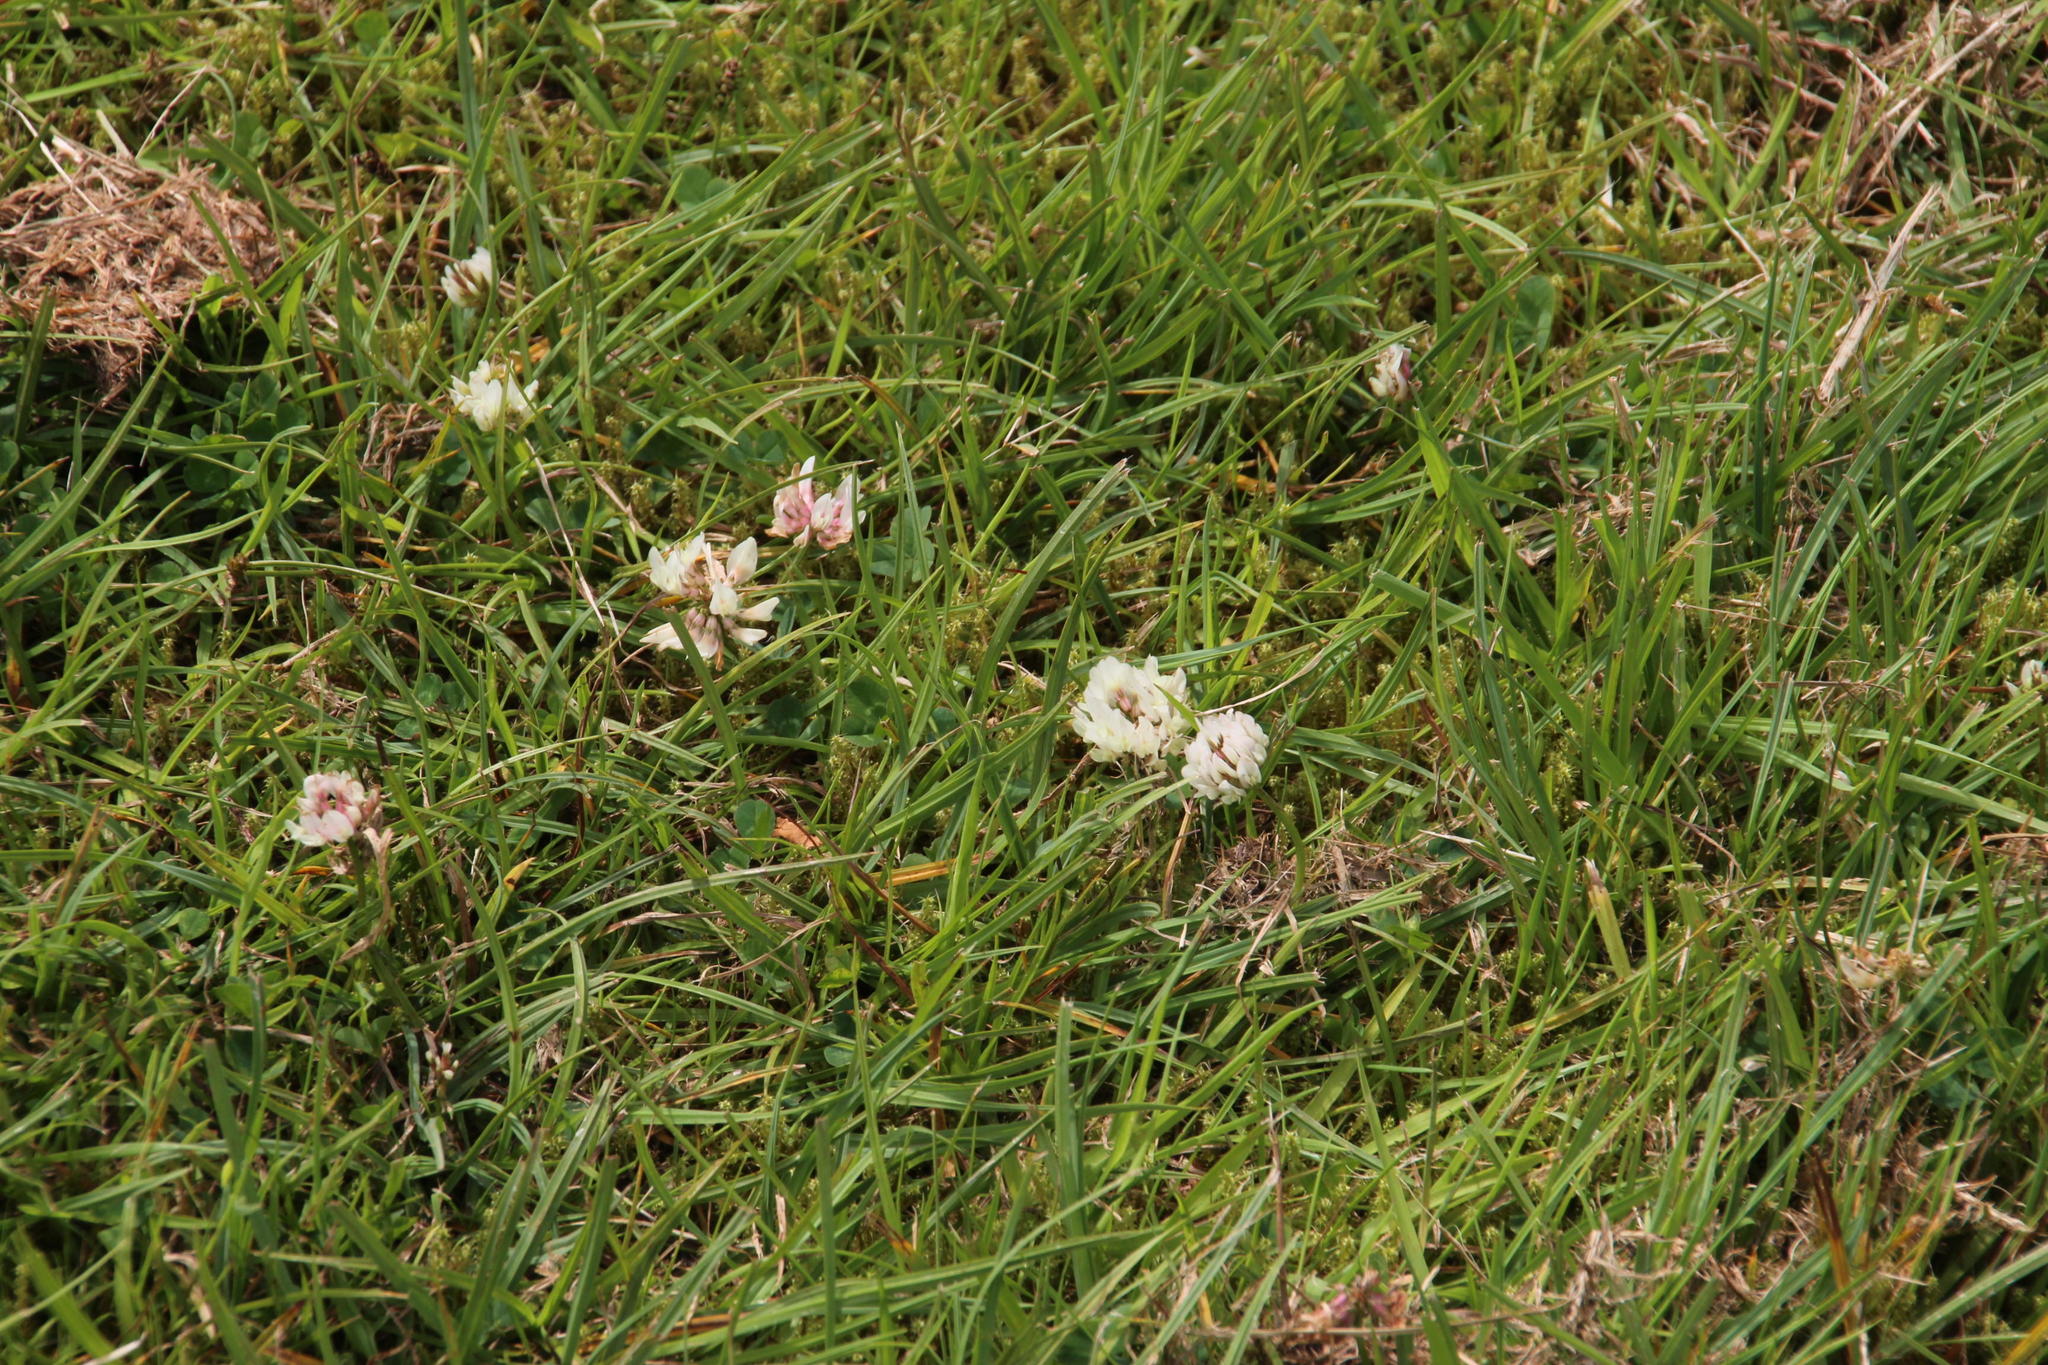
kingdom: Plantae
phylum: Tracheophyta
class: Magnoliopsida
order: Fabales
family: Fabaceae
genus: Trifolium
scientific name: Trifolium repens
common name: White clover
